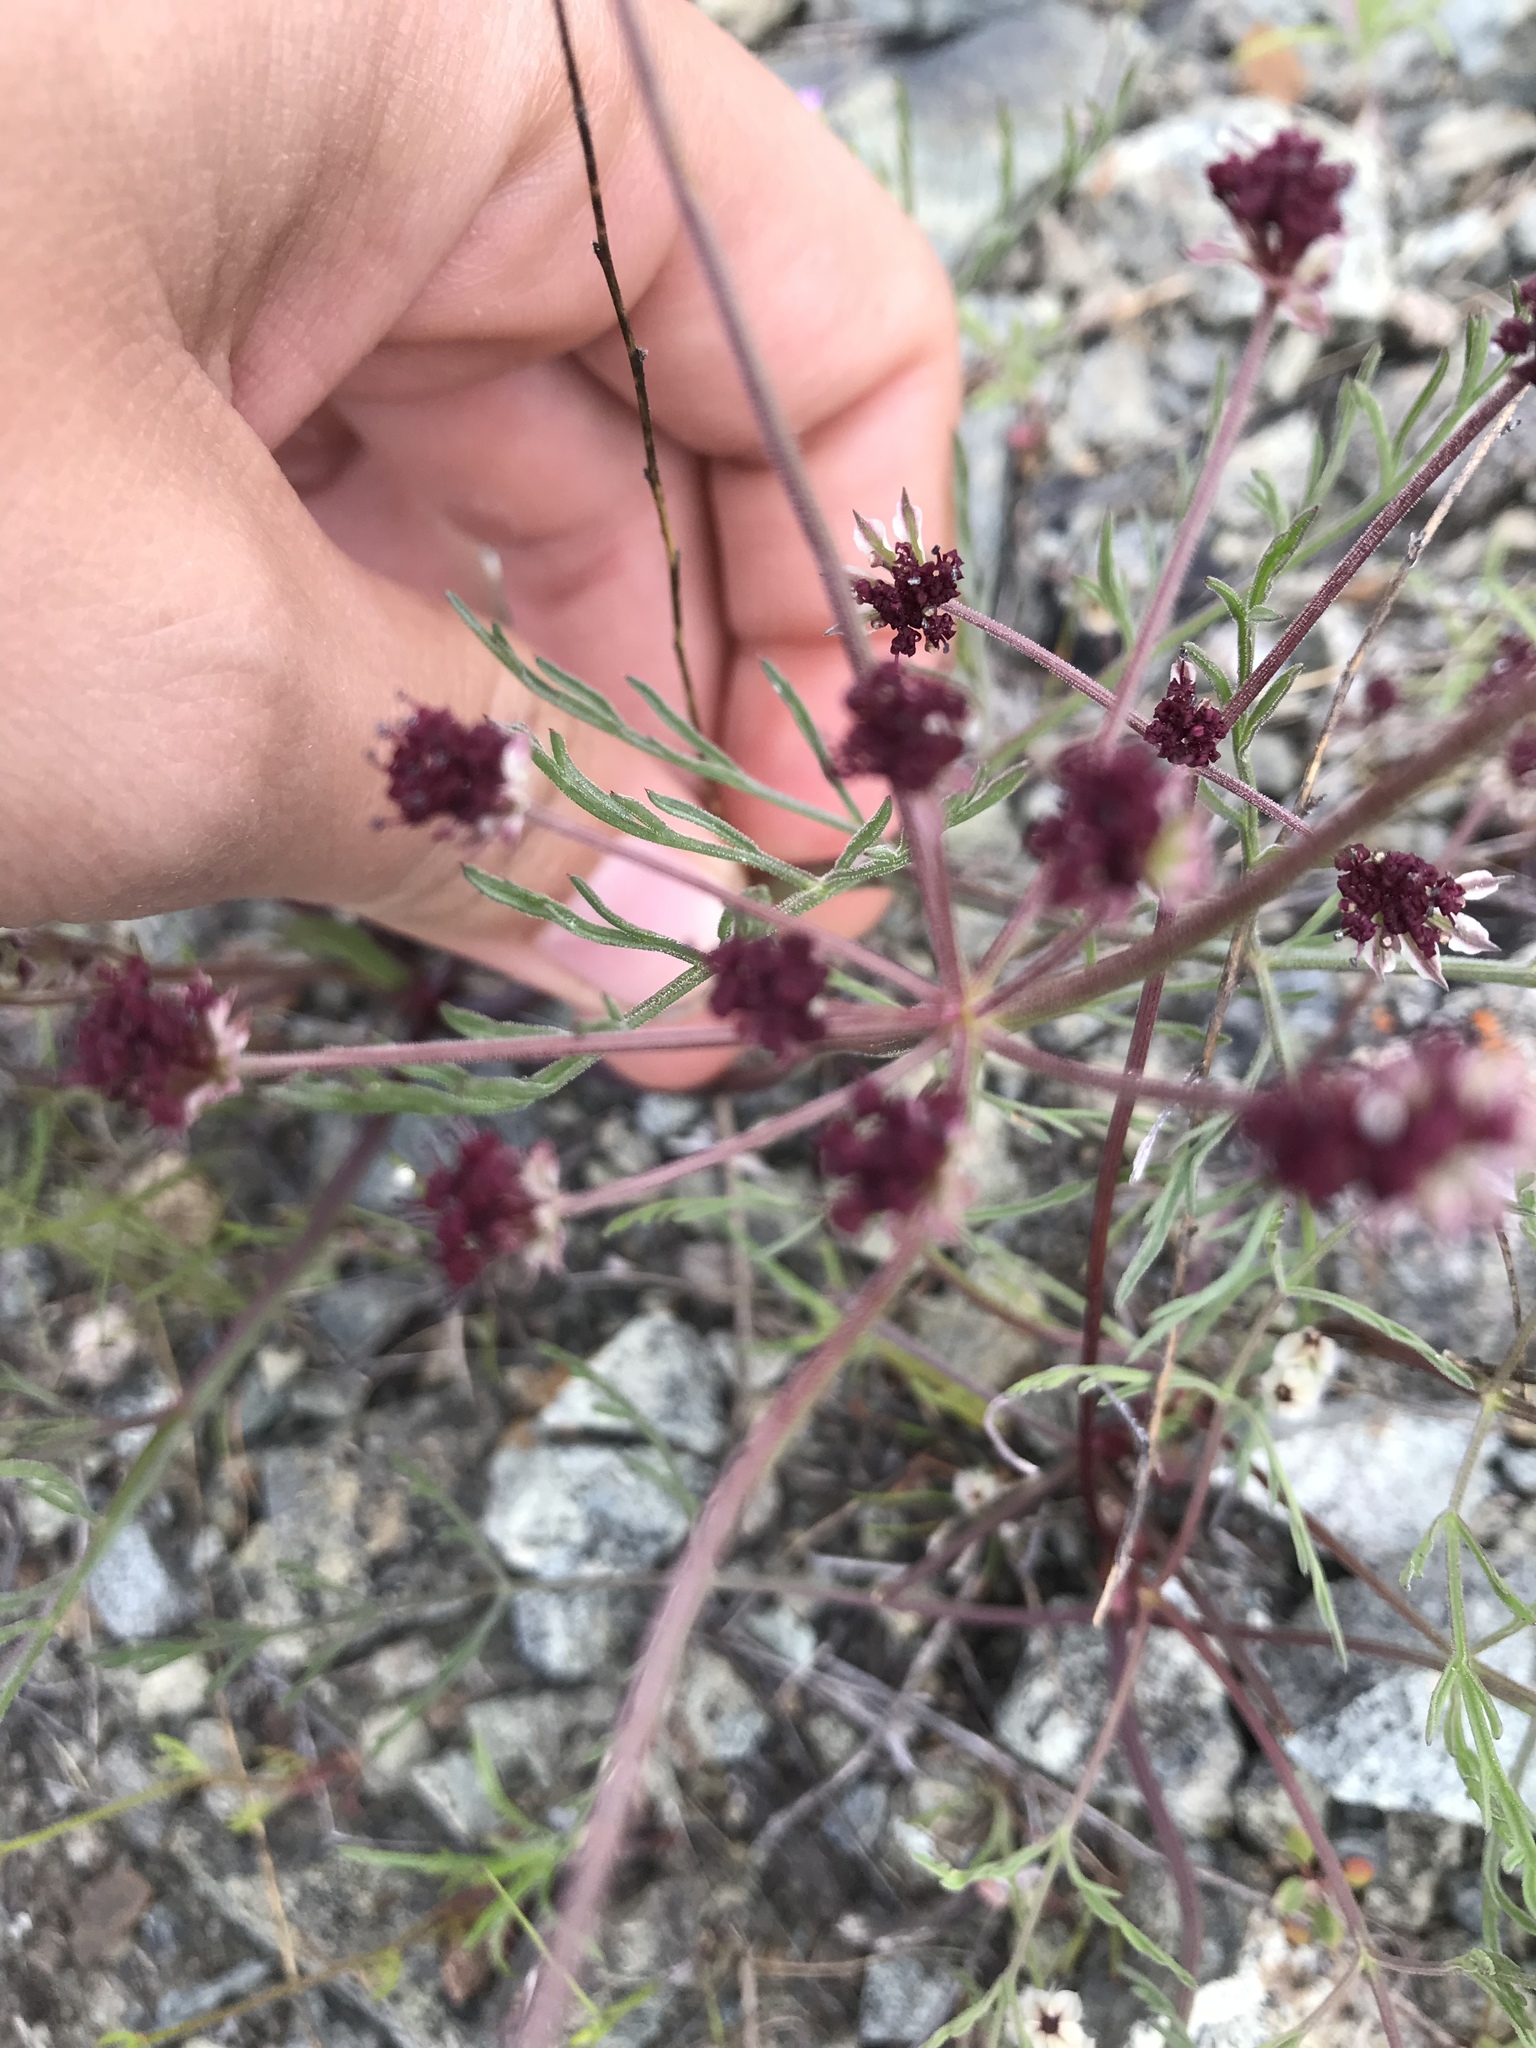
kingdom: Plantae
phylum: Tracheophyta
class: Magnoliopsida
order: Apiales
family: Apiaceae
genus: Lomatium
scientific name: Lomatium hooveri
